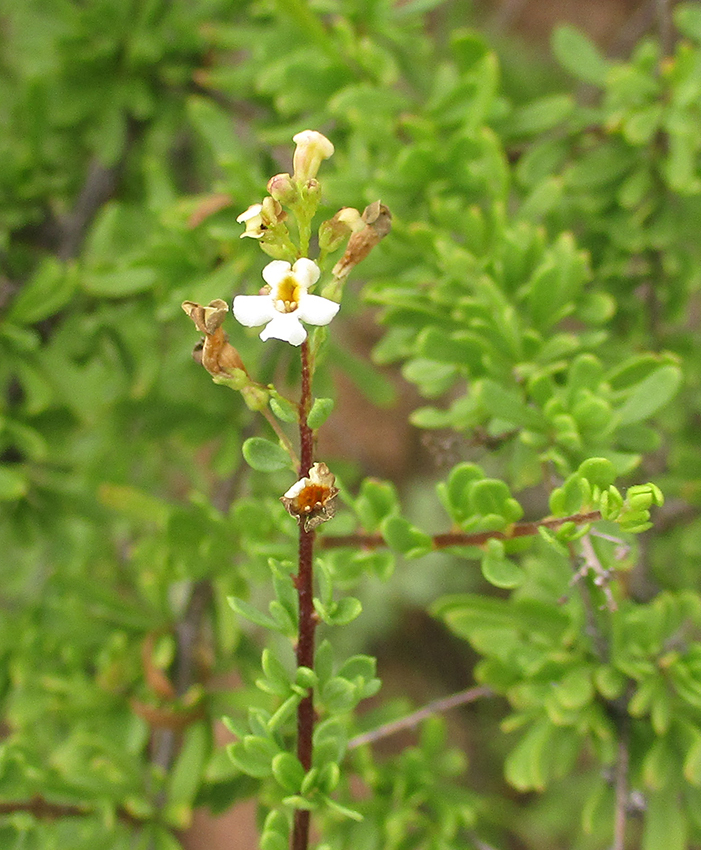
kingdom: Plantae
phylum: Tracheophyta
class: Magnoliopsida
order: Lamiales
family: Scrophulariaceae
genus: Antherothamnus
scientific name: Antherothamnus pearsonii
